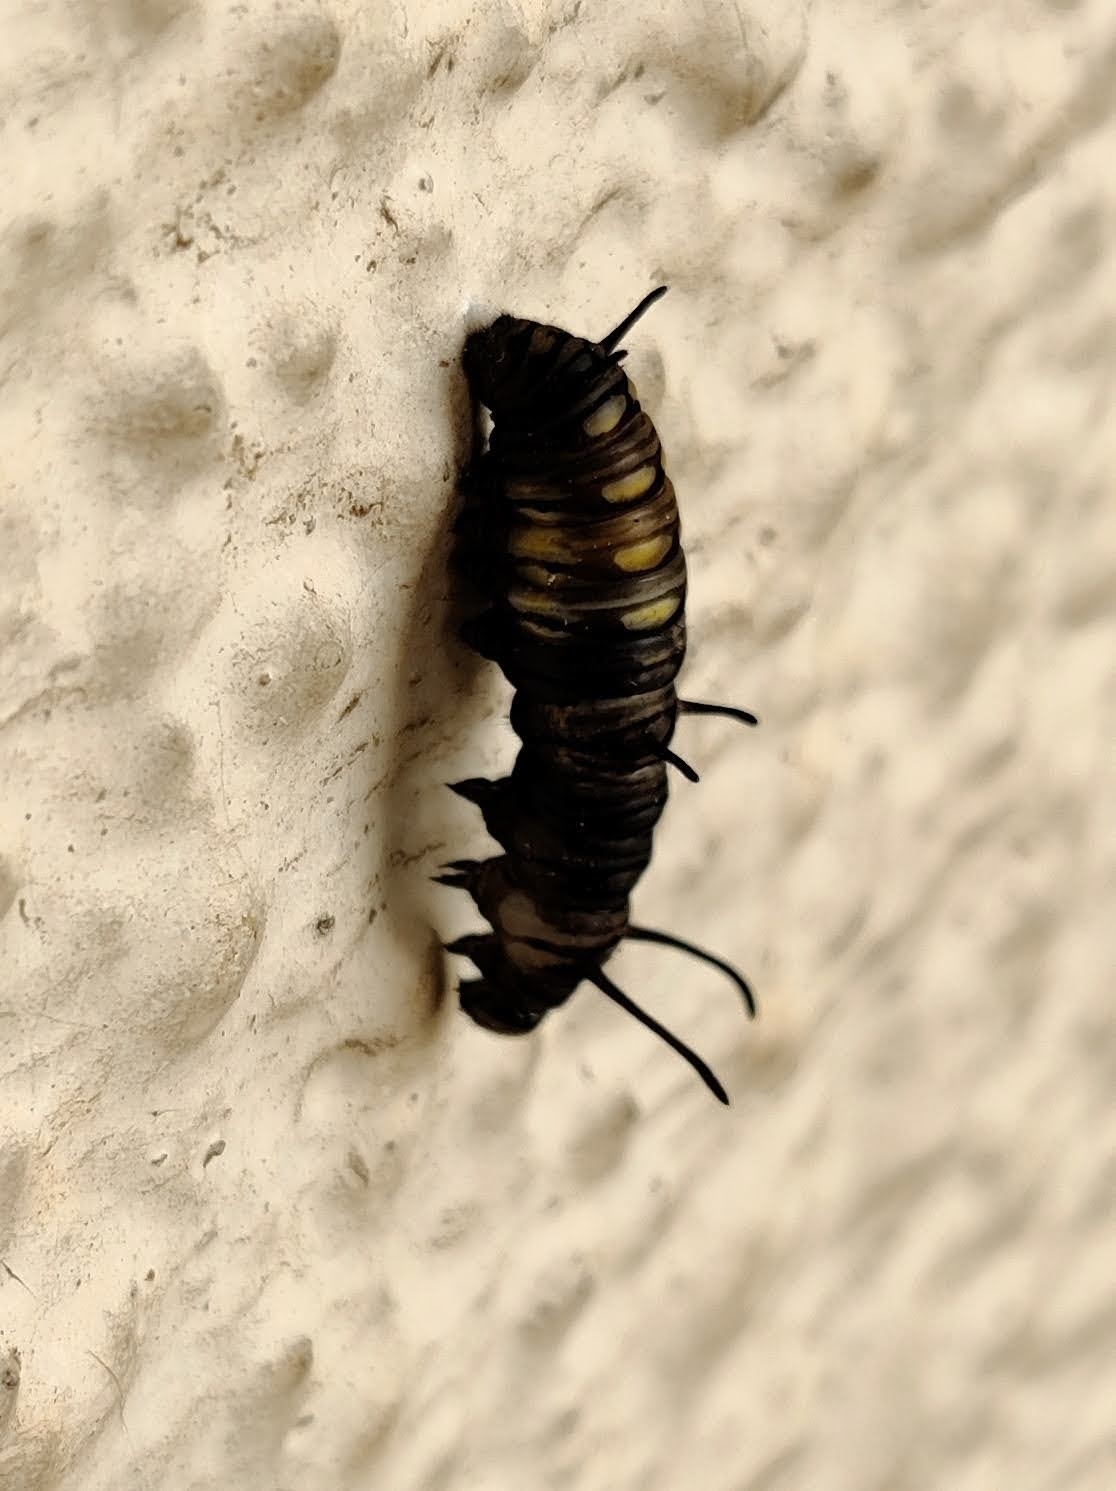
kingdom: Animalia
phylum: Arthropoda
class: Insecta
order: Lepidoptera
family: Nymphalidae
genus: Danaus
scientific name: Danaus chrysippus
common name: Plain tiger
